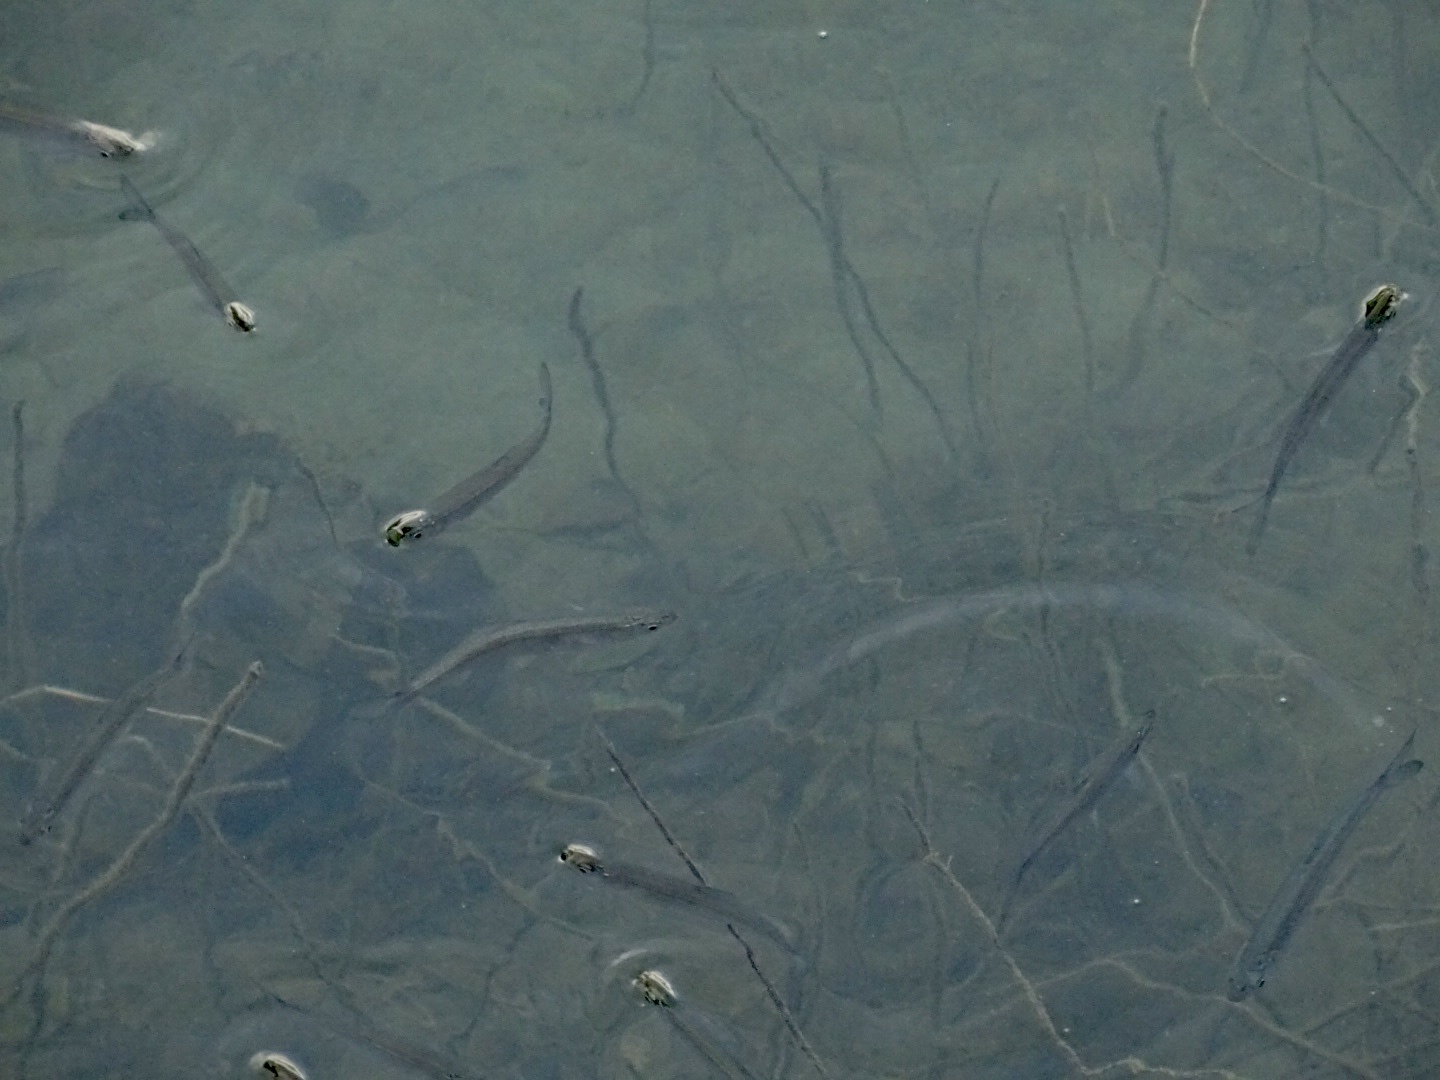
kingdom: Animalia
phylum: Chordata
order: Cypriniformes
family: Cyprinidae
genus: Hemiculter
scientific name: Hemiculter leucisculus
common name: Common sawbelly
